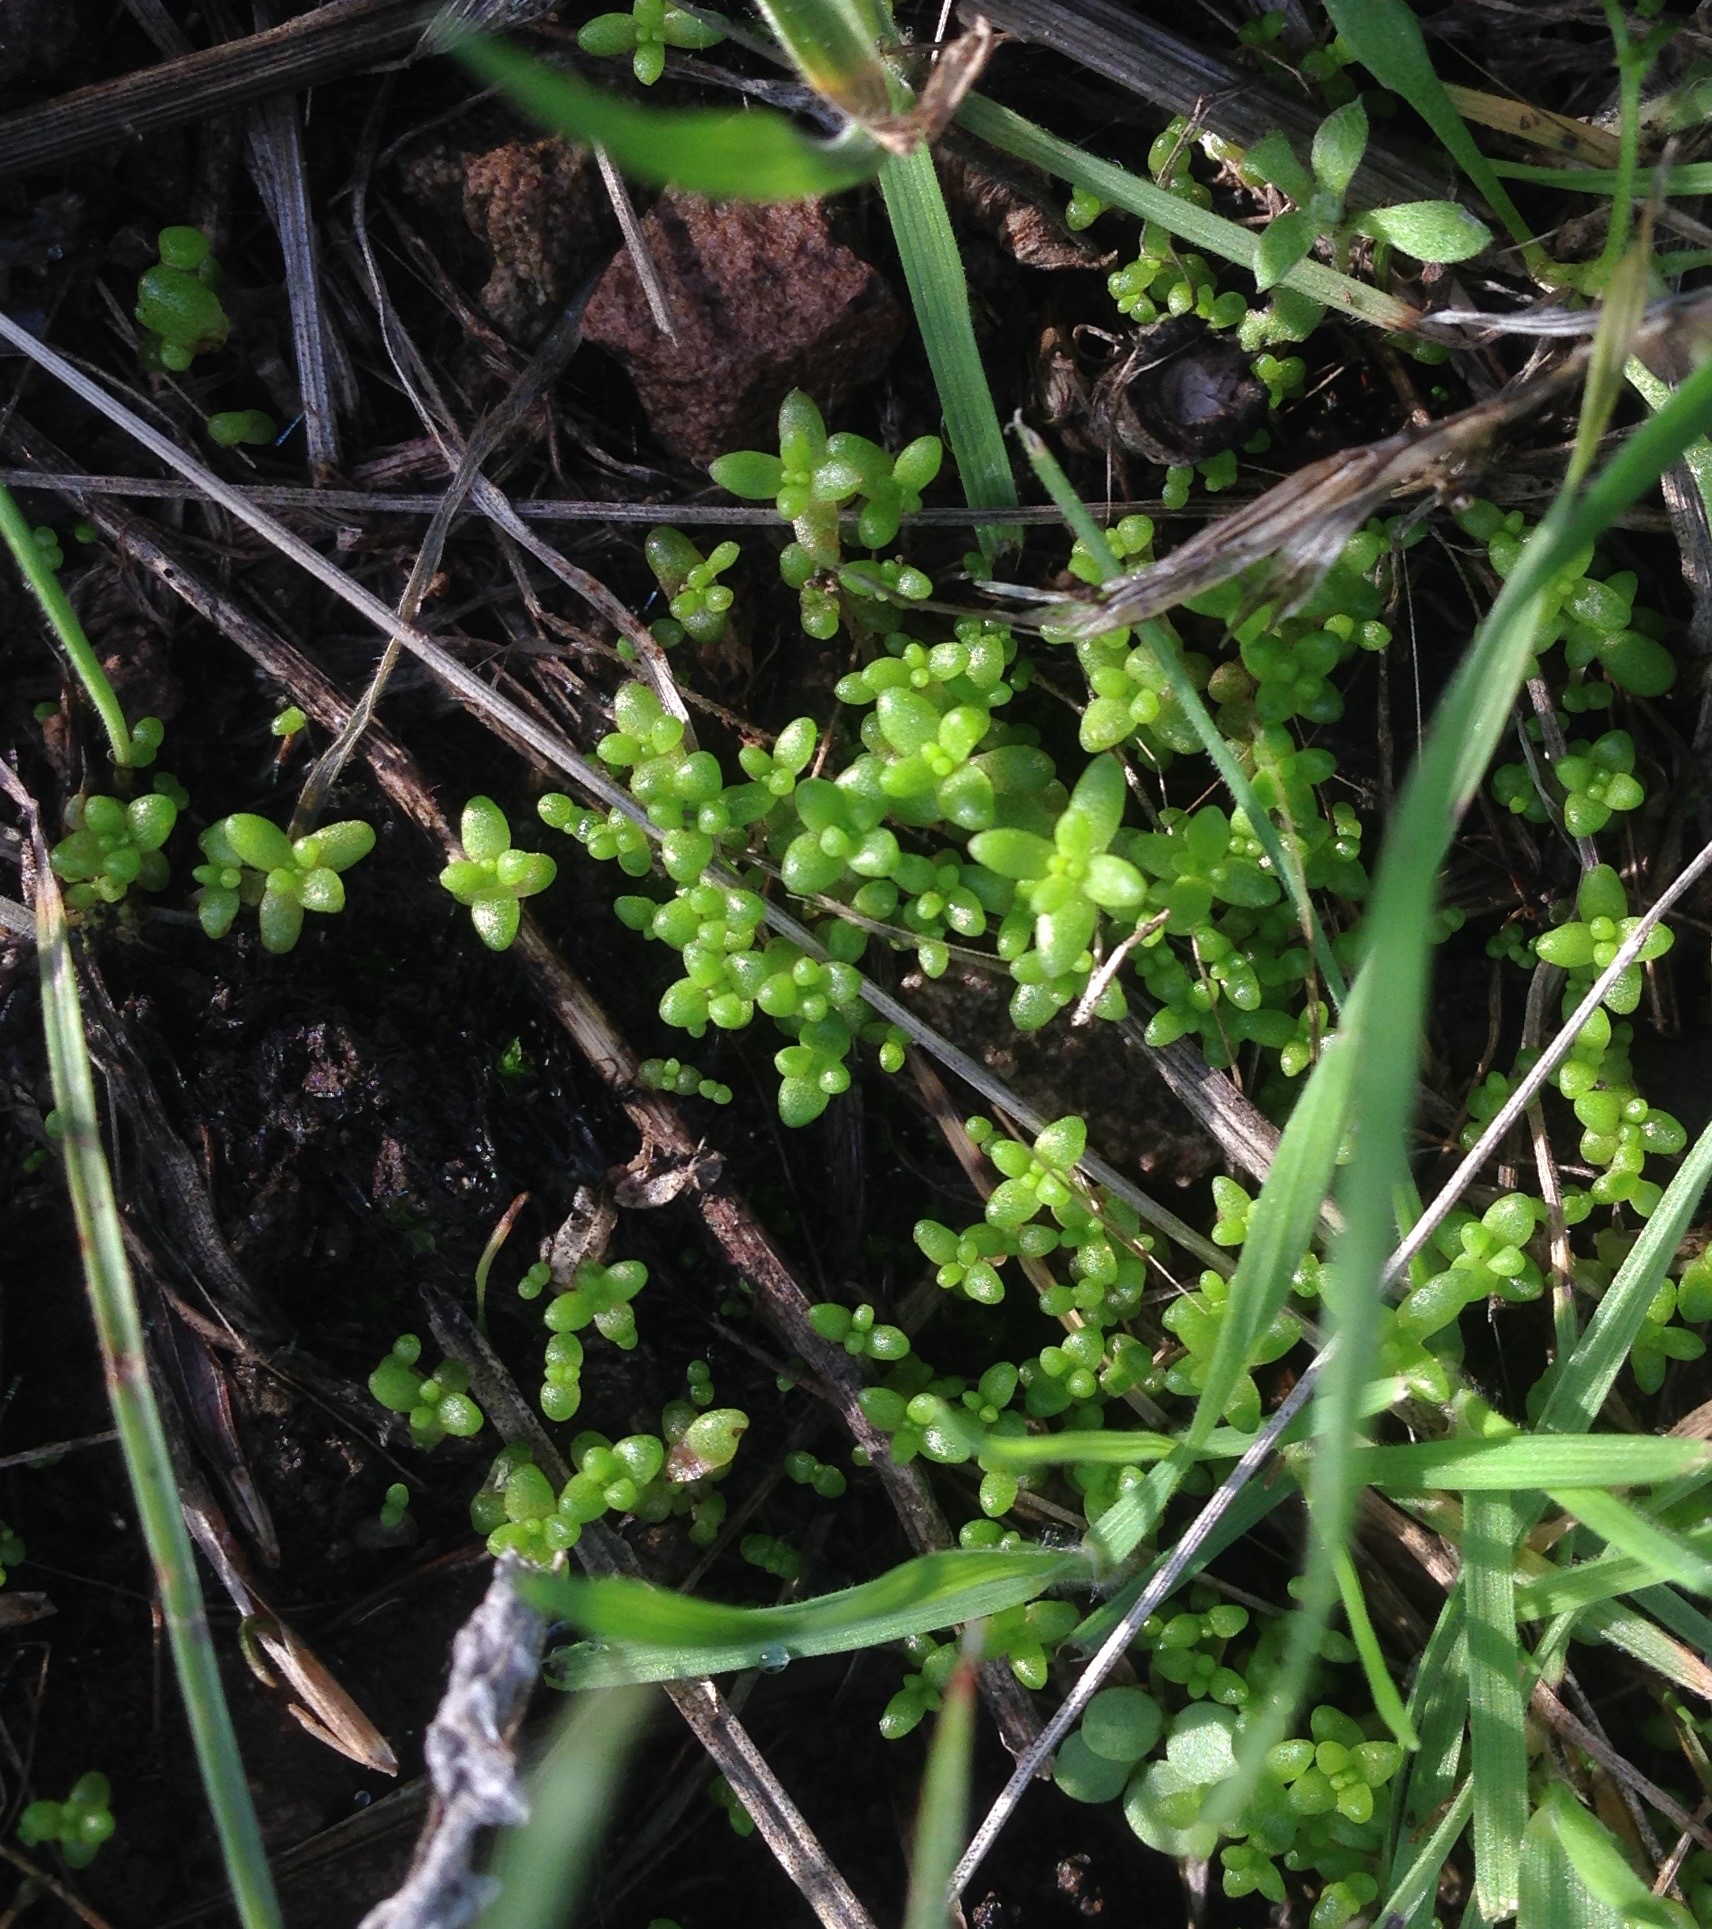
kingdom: Plantae
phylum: Tracheophyta
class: Magnoliopsida
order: Saxifragales
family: Crassulaceae
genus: Crassula
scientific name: Crassula connata
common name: Erect pygmyweed
